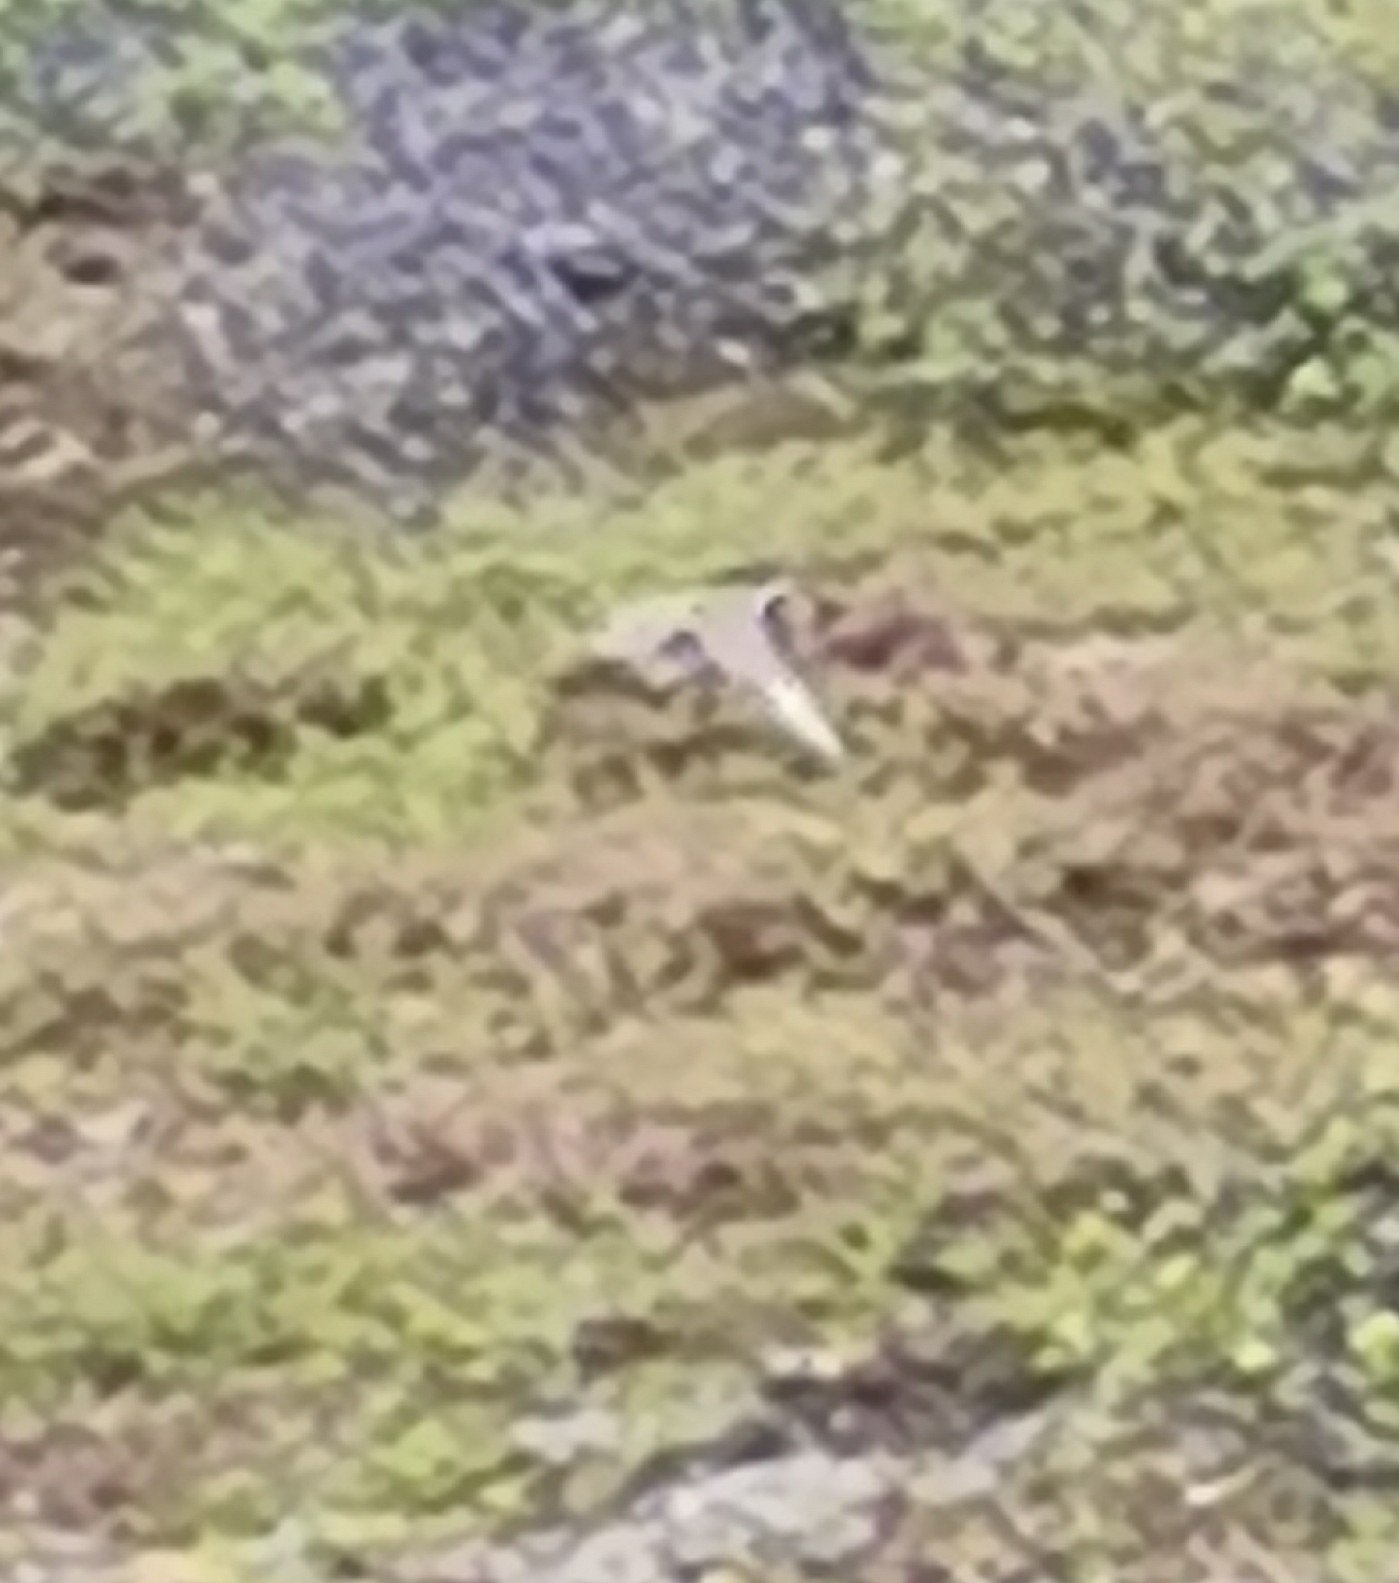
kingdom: Animalia
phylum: Chordata
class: Aves
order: Charadriiformes
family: Charadriidae
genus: Pluvialis
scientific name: Pluvialis apricaria
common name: European golden plover
